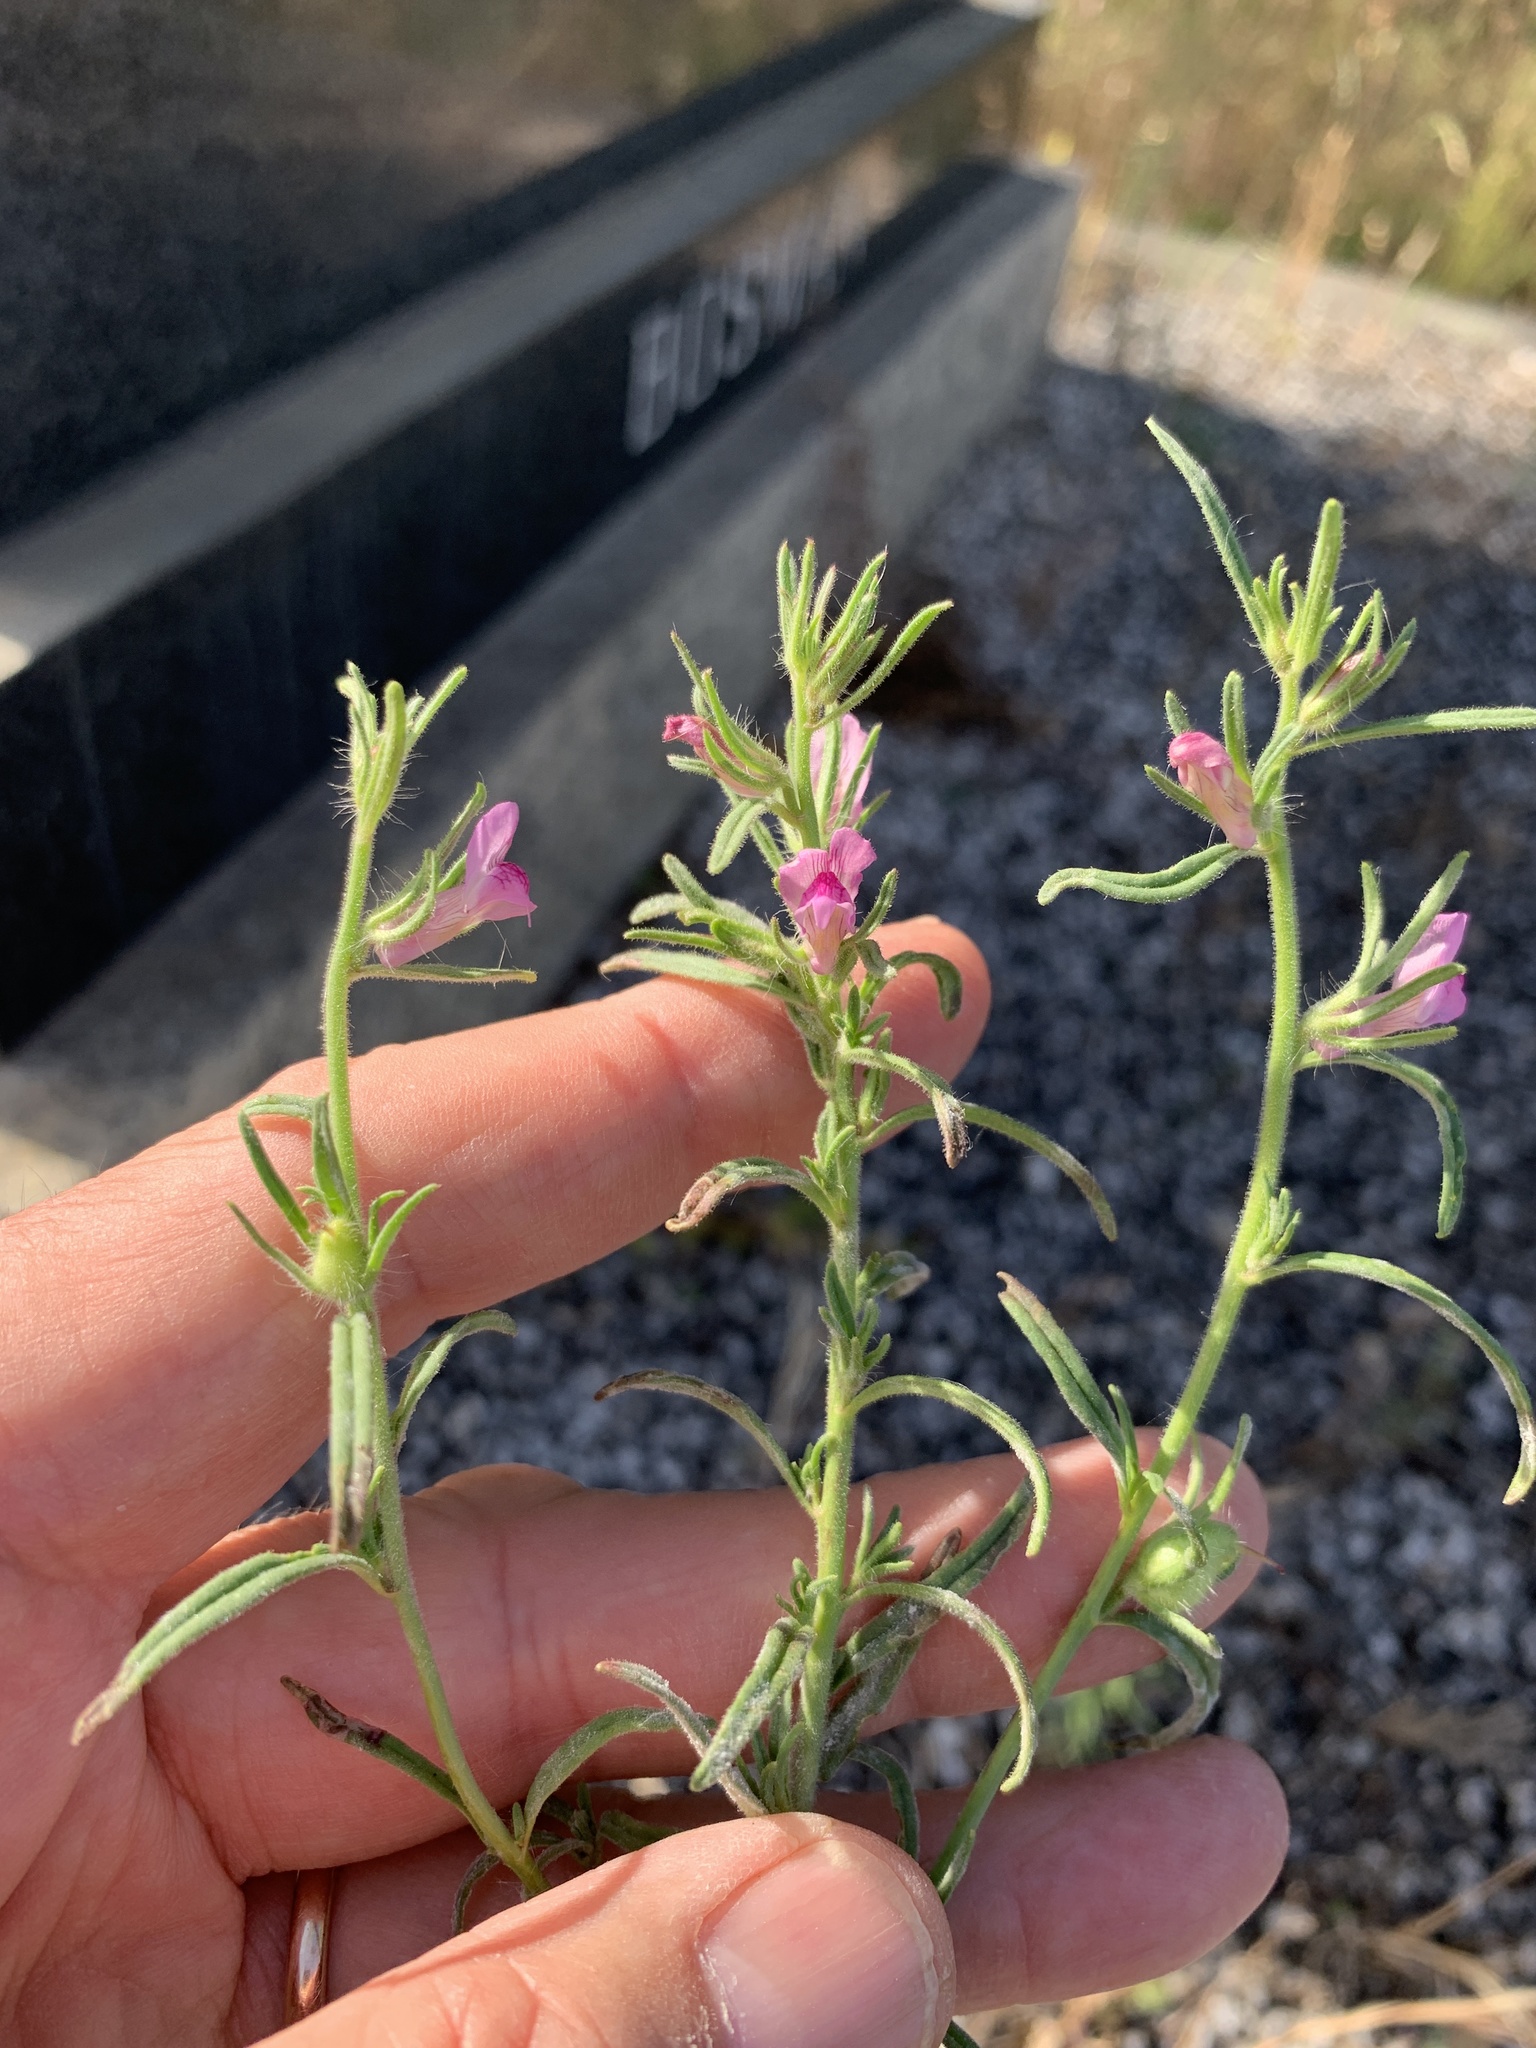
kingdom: Plantae
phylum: Tracheophyta
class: Magnoliopsida
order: Lamiales
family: Plantaginaceae
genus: Misopates
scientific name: Misopates orontium
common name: Weasel's-snout
